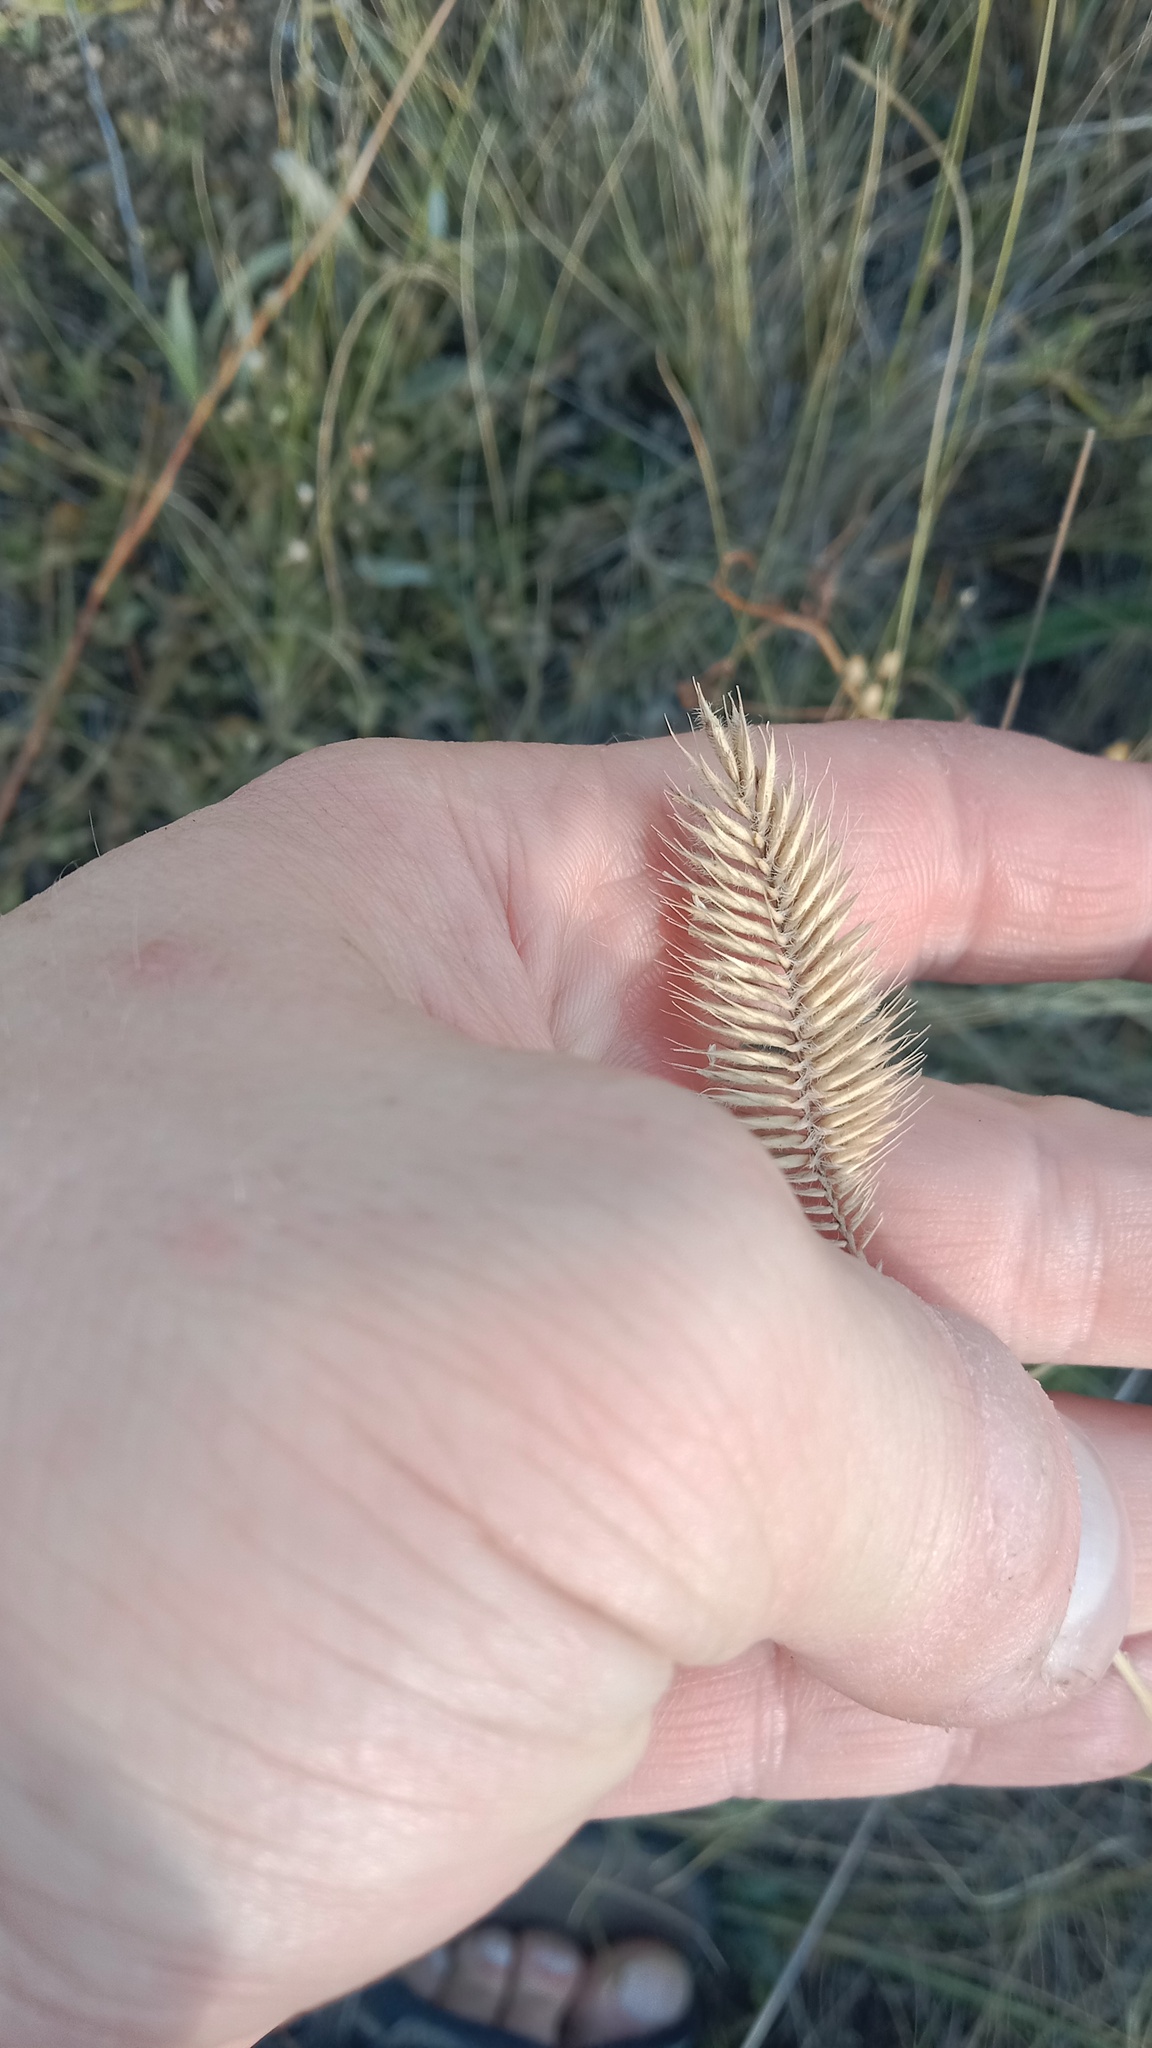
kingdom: Plantae
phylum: Tracheophyta
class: Liliopsida
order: Poales
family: Poaceae
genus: Agropyron
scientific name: Agropyron cristatum
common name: Crested wheatgrass
